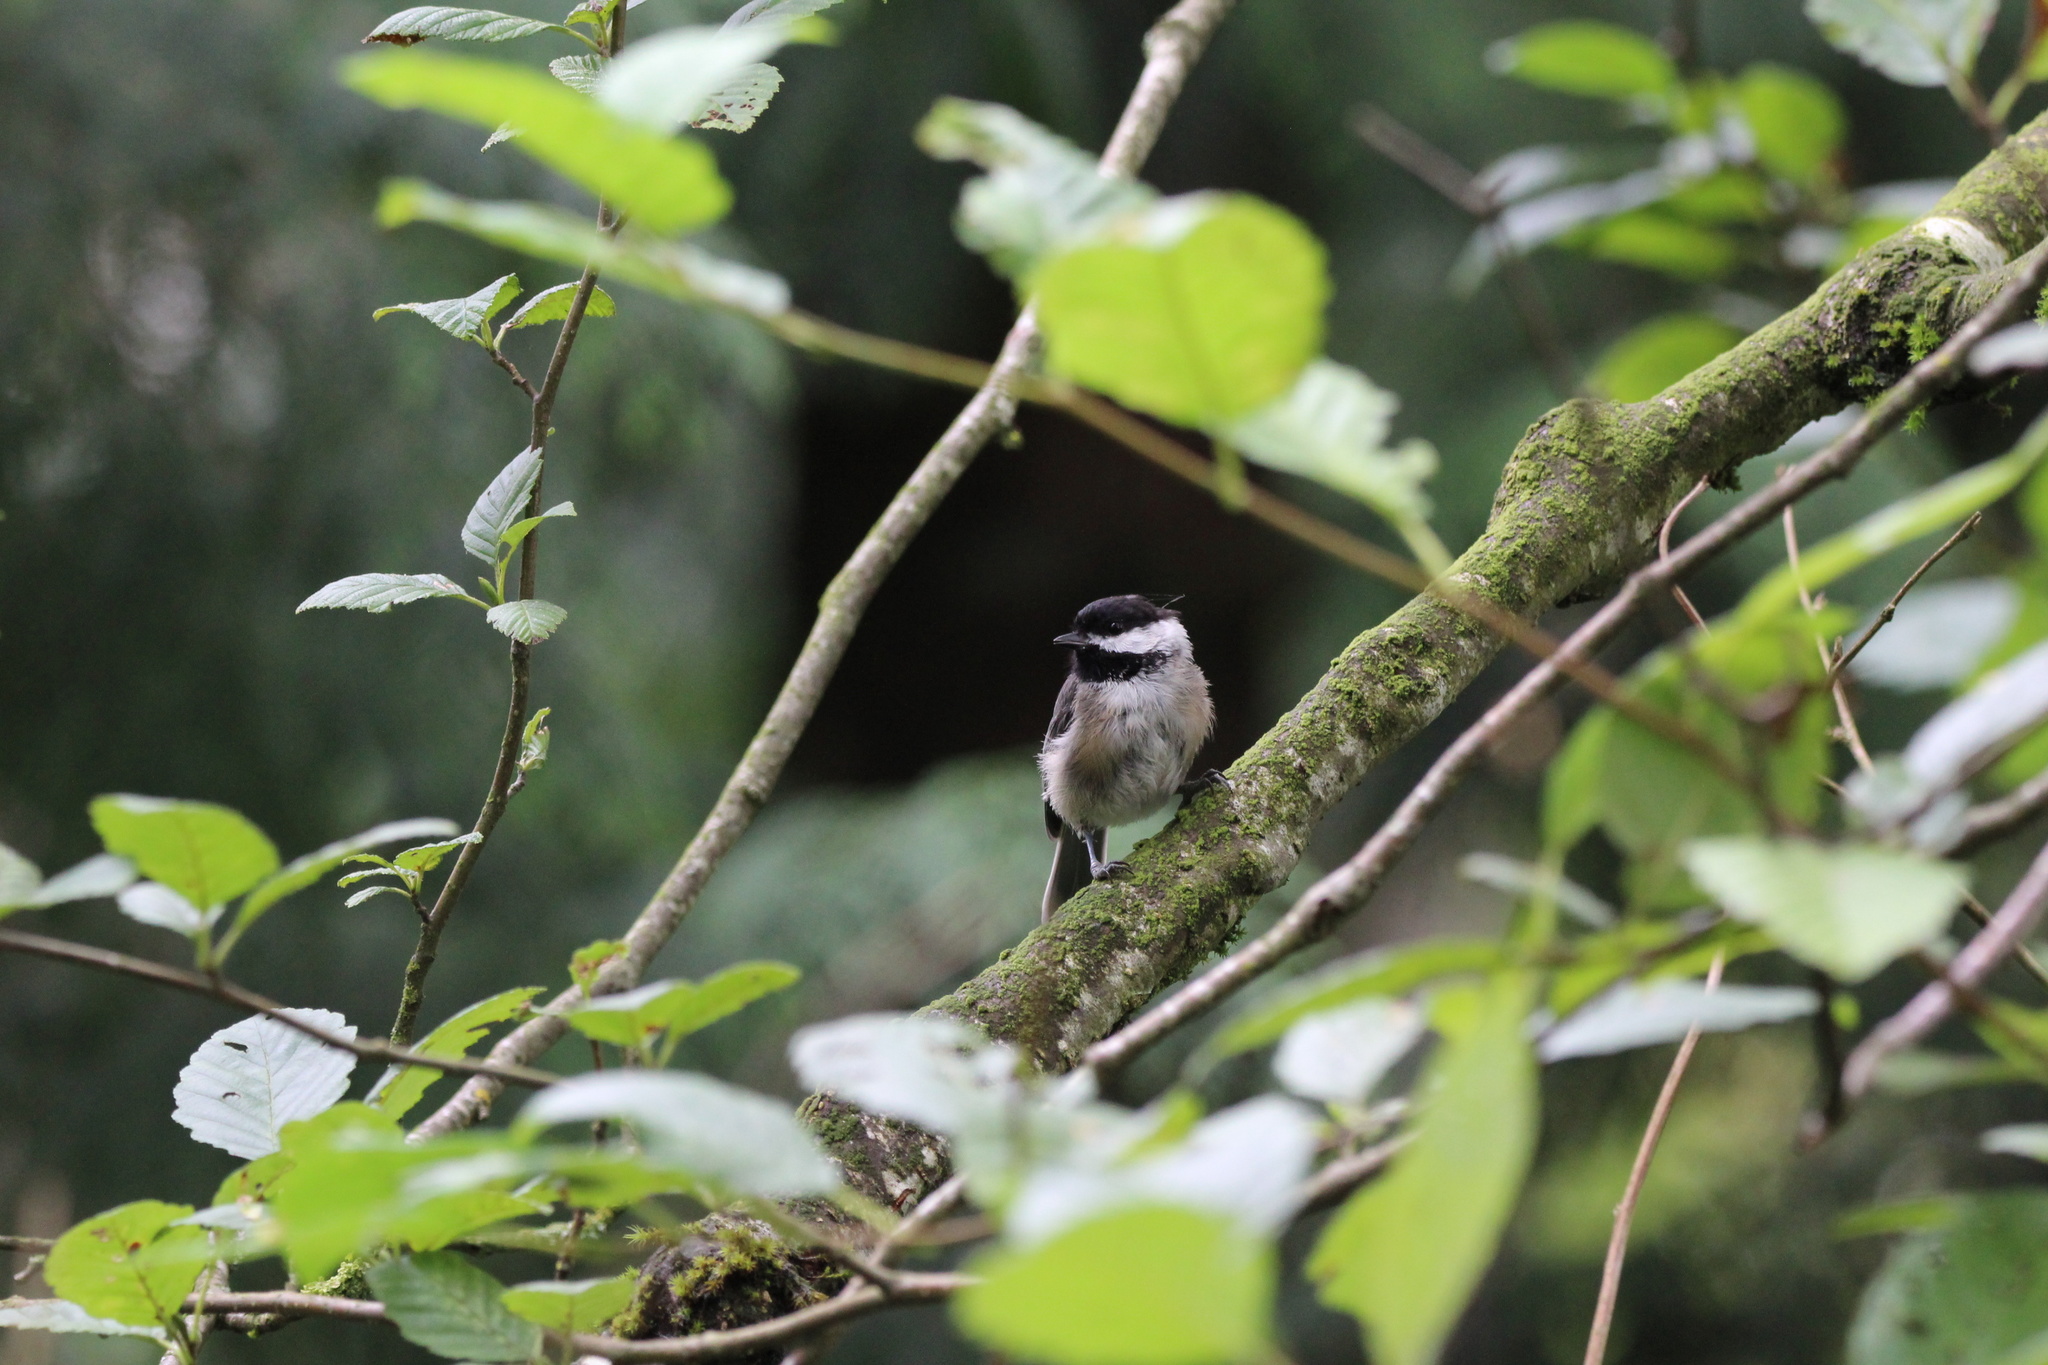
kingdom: Animalia
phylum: Chordata
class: Aves
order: Passeriformes
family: Paridae
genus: Poecile
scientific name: Poecile atricapillus
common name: Black-capped chickadee
